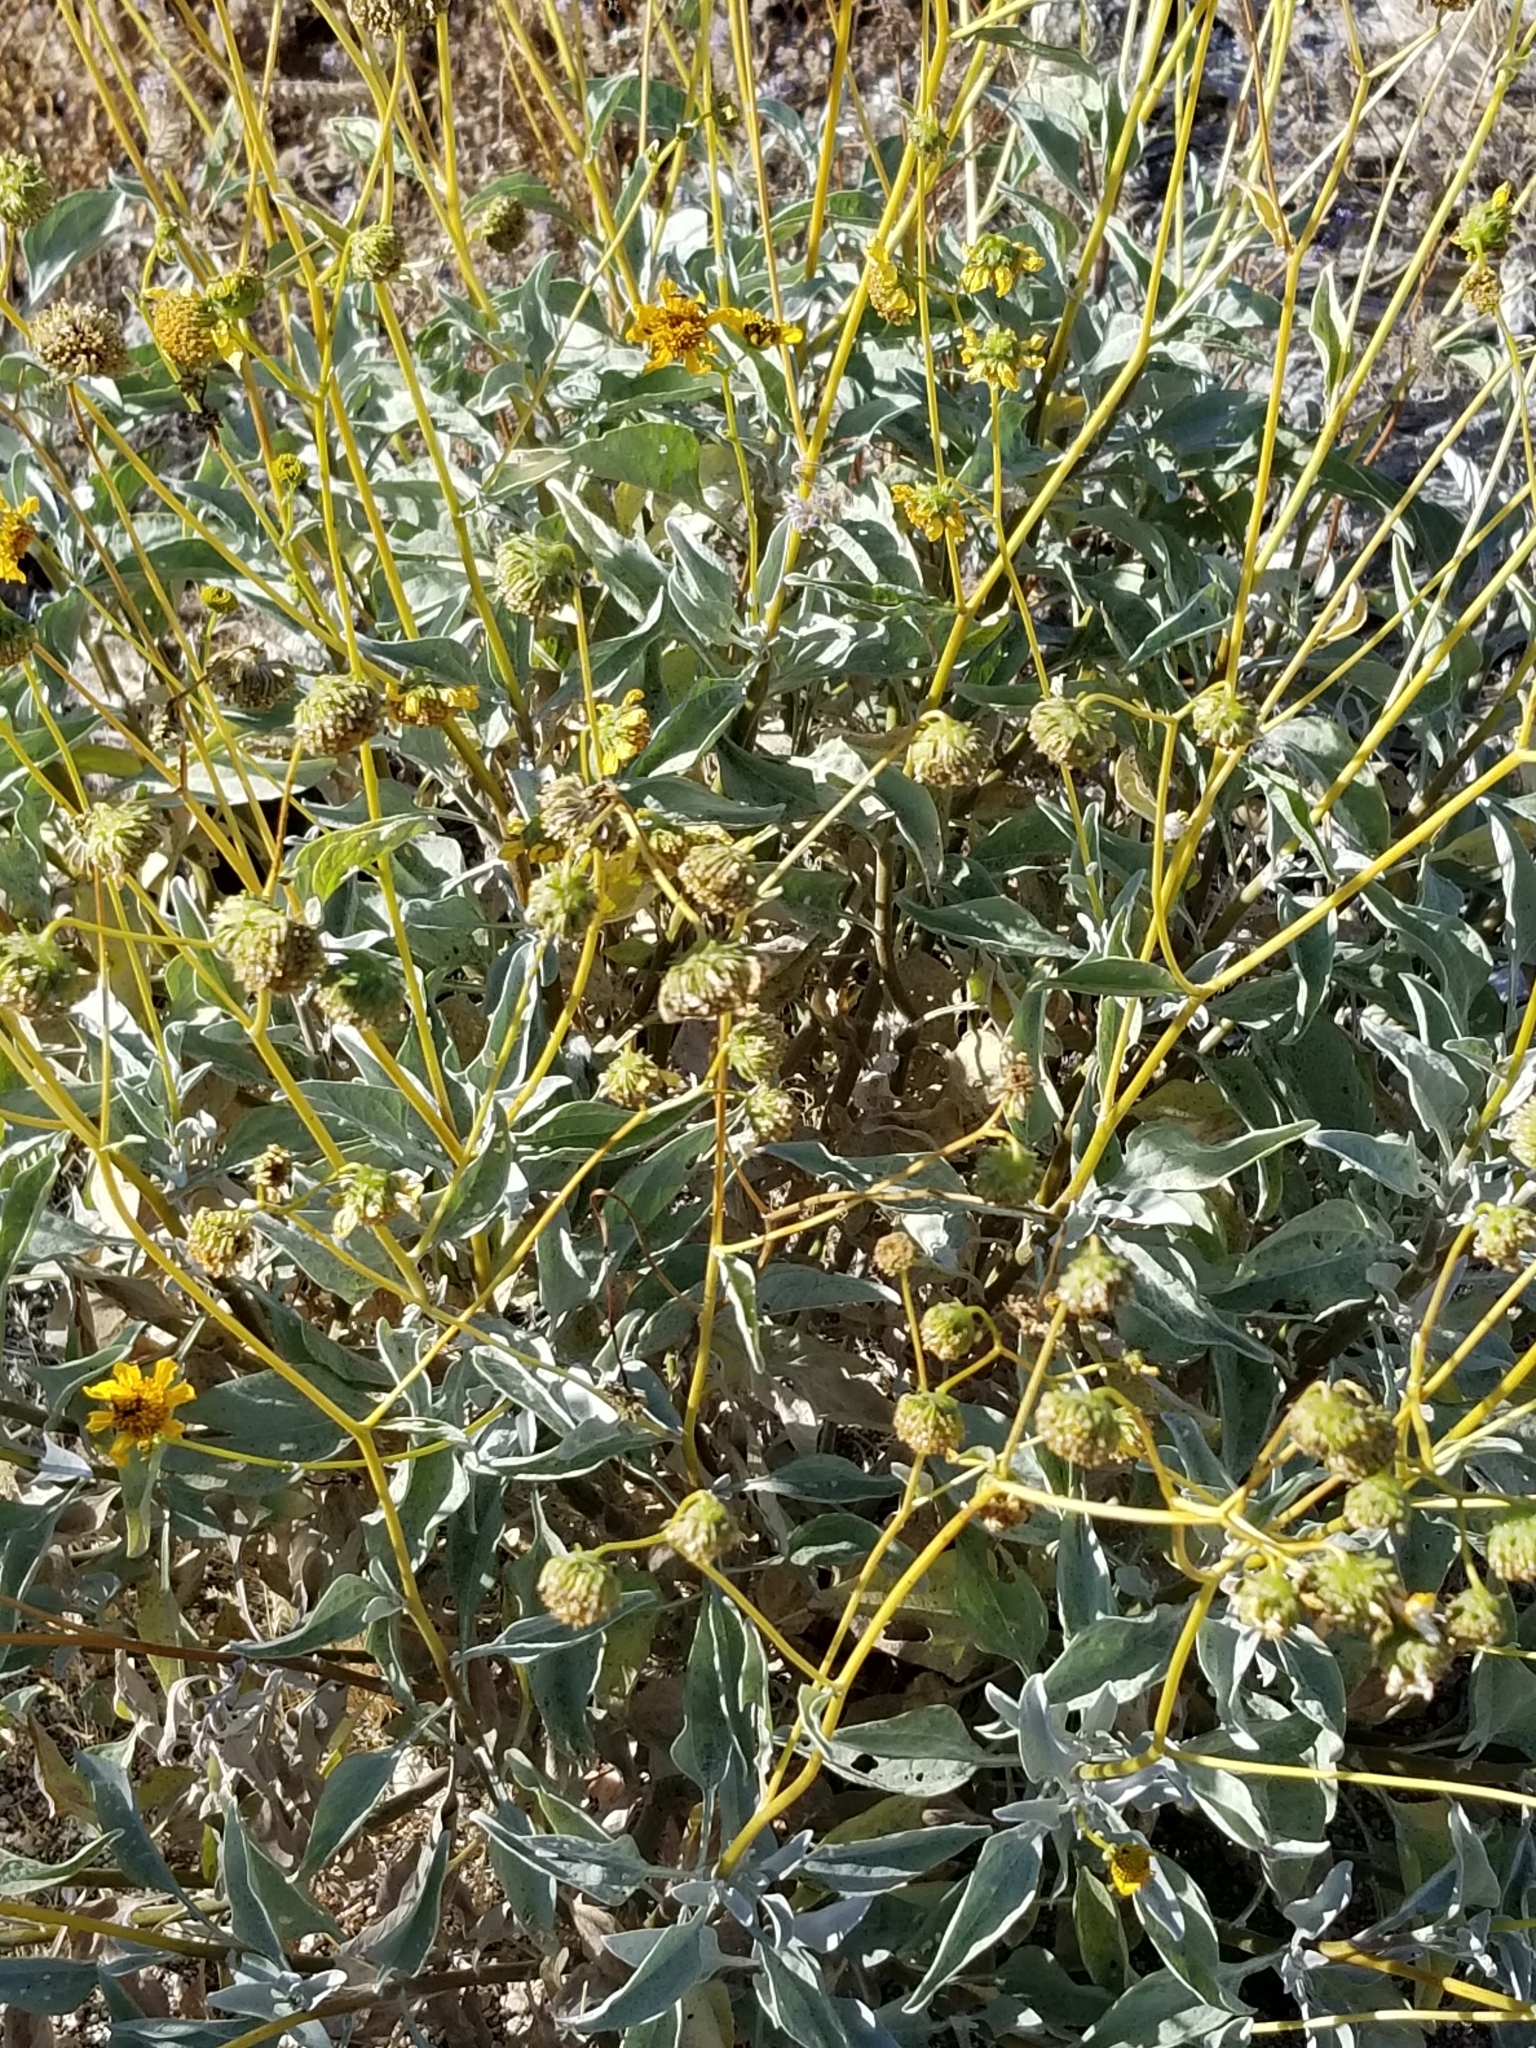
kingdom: Plantae
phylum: Tracheophyta
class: Magnoliopsida
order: Asterales
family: Asteraceae
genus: Encelia
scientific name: Encelia farinosa
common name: Brittlebush
